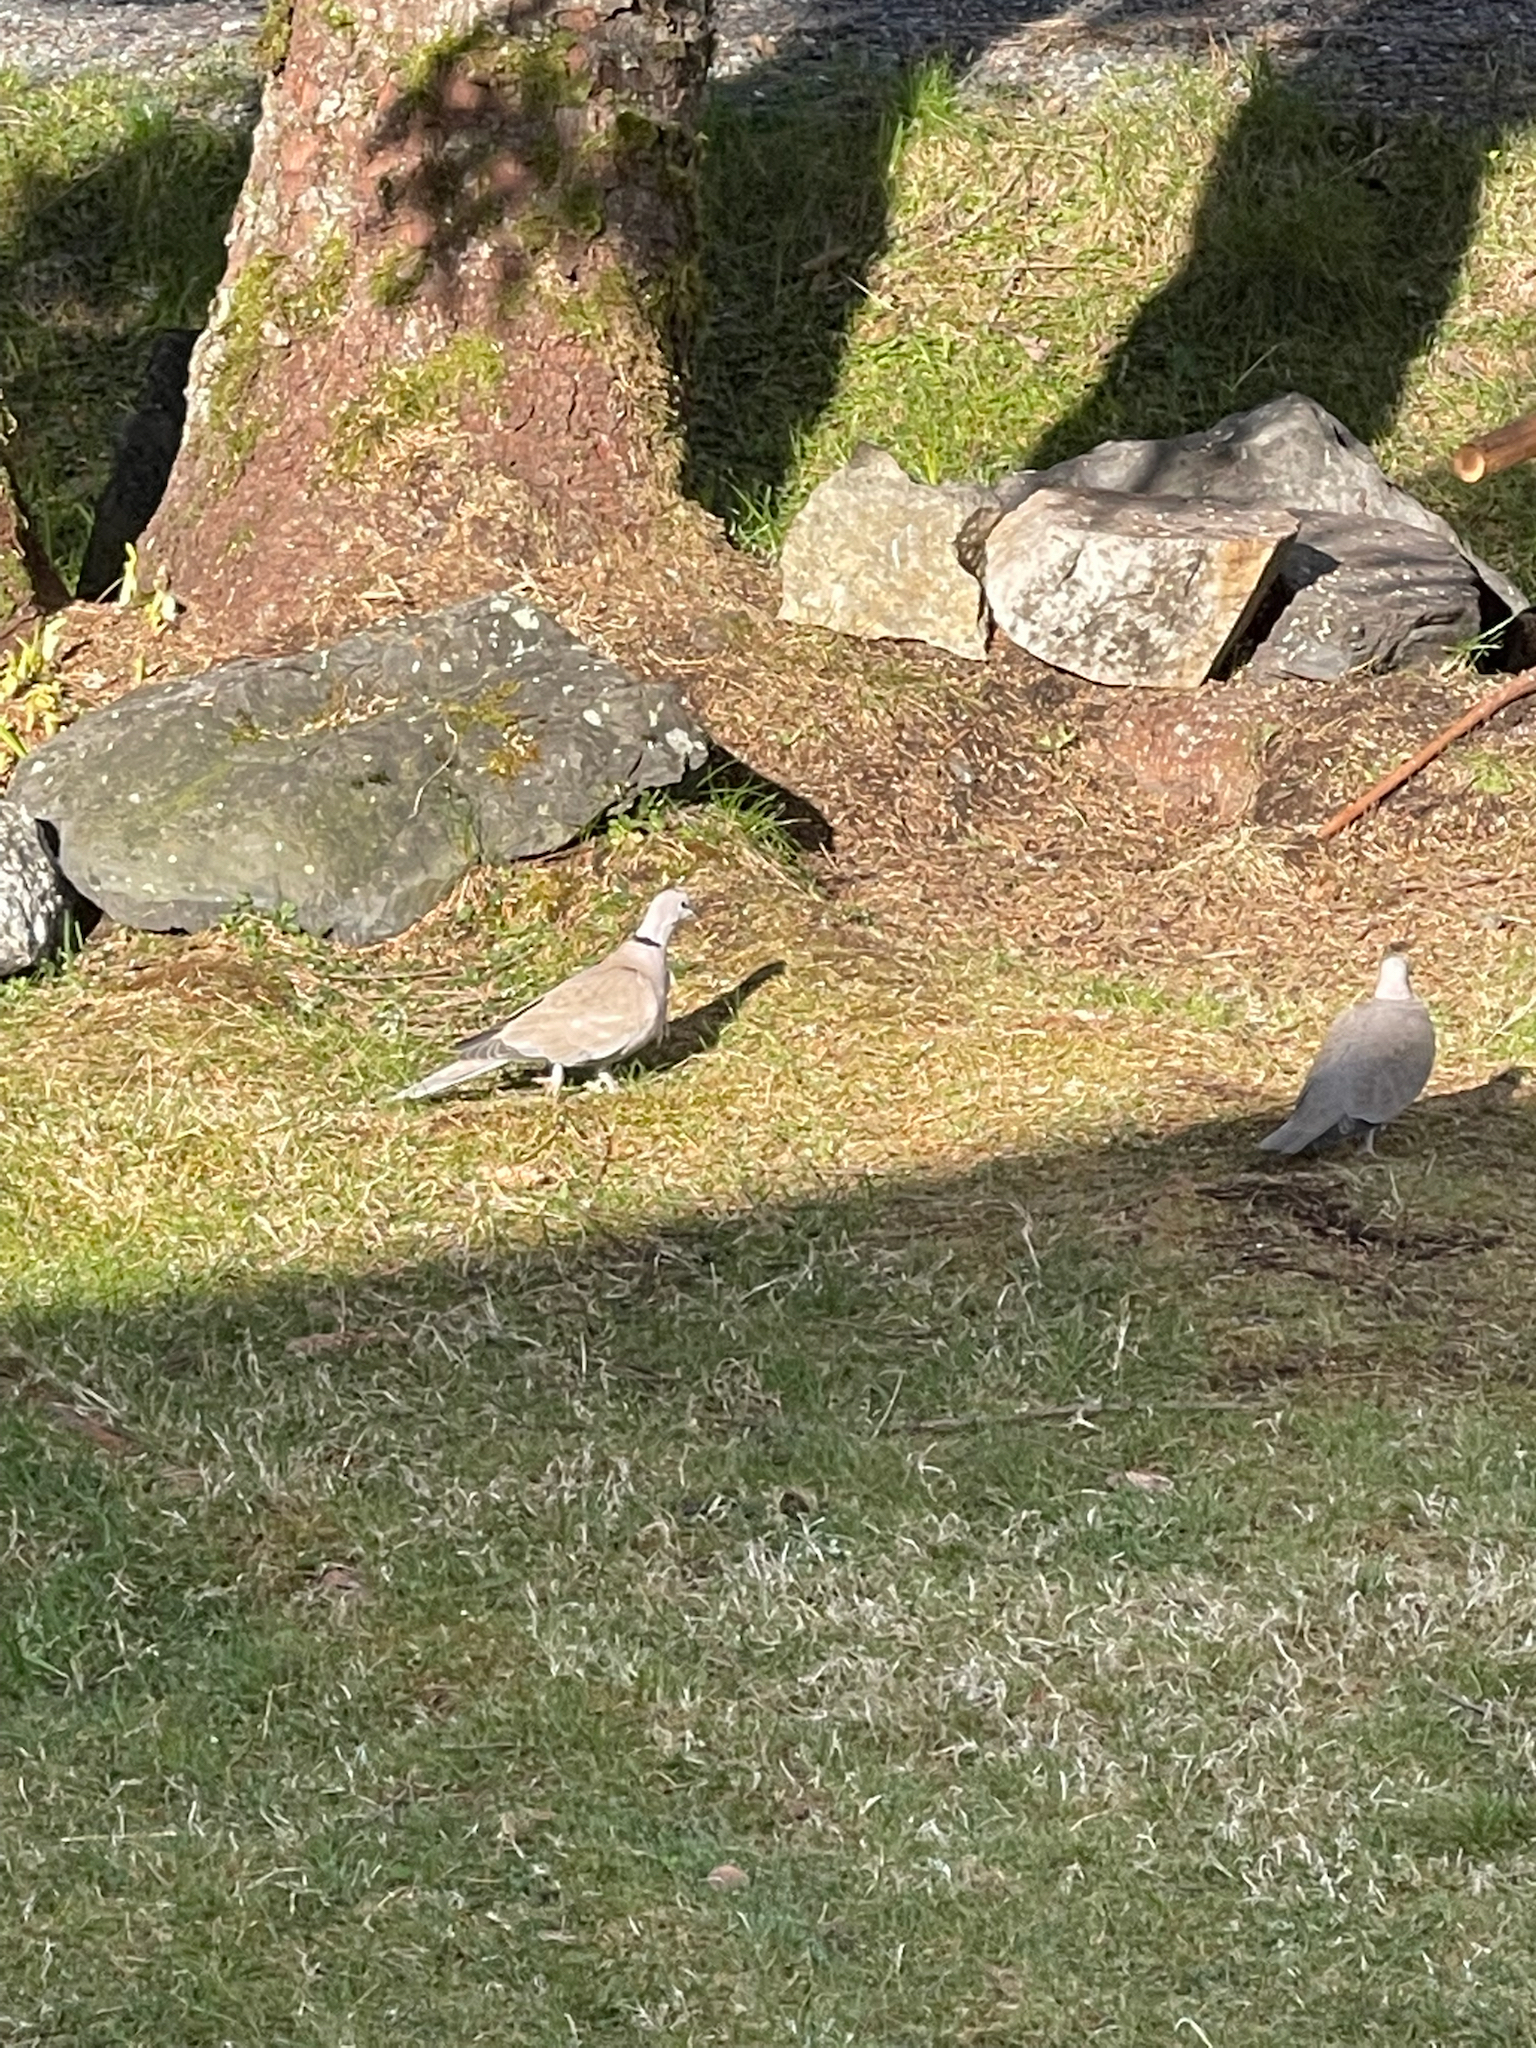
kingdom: Animalia
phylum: Chordata
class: Aves
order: Columbiformes
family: Columbidae
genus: Streptopelia
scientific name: Streptopelia decaocto
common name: Eurasian collared dove
